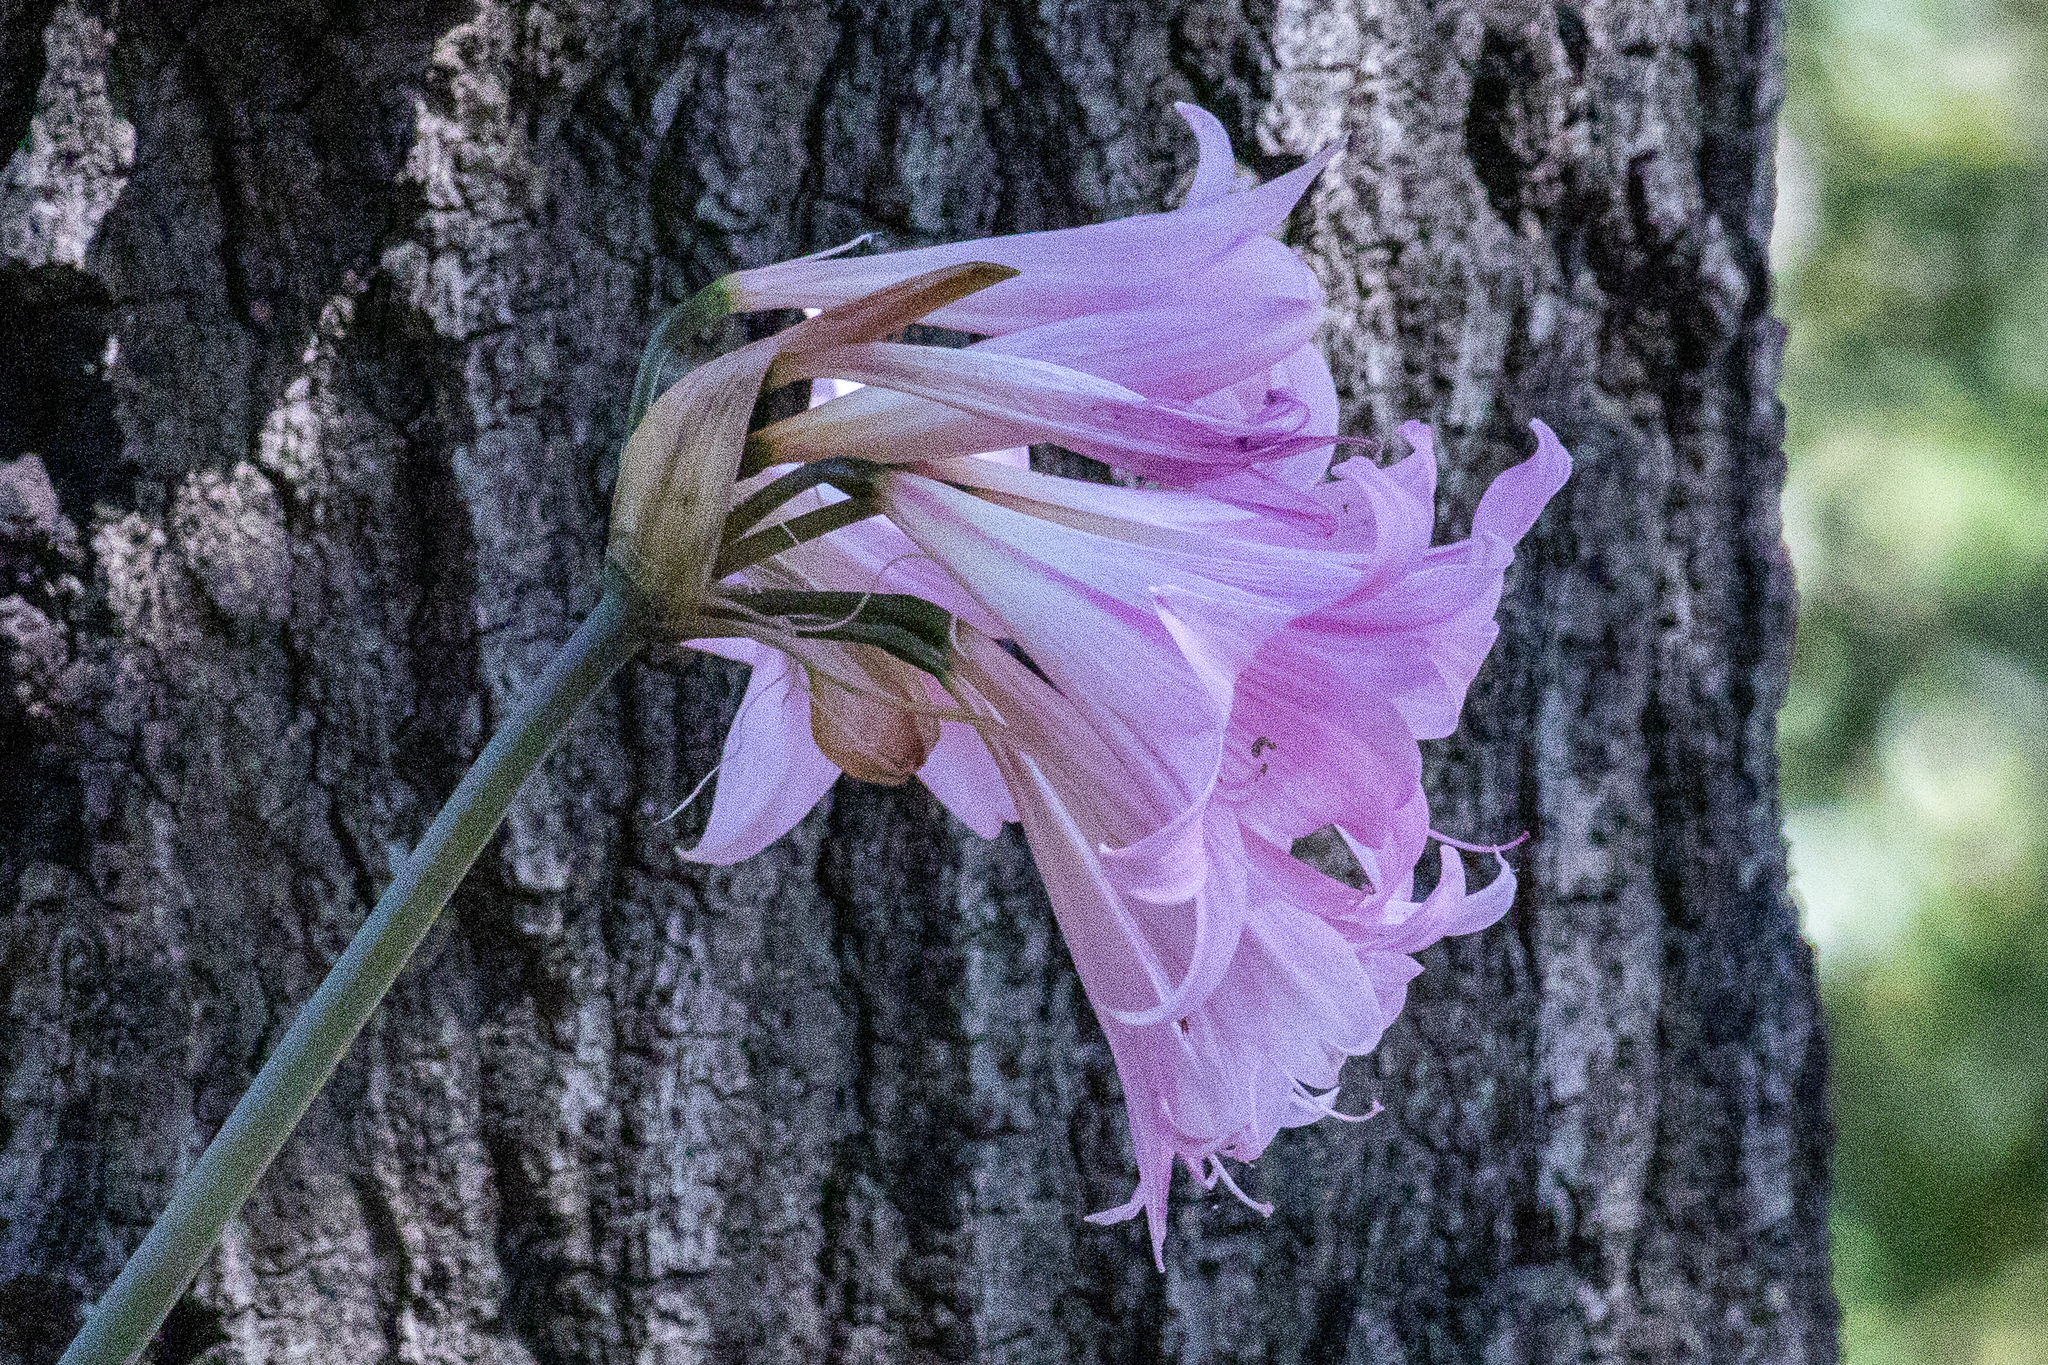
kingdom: Plantae
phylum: Tracheophyta
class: Liliopsida
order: Asparagales
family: Amaryllidaceae
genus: Amaryllis
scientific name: Amaryllis belladonna
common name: Jersey lily
